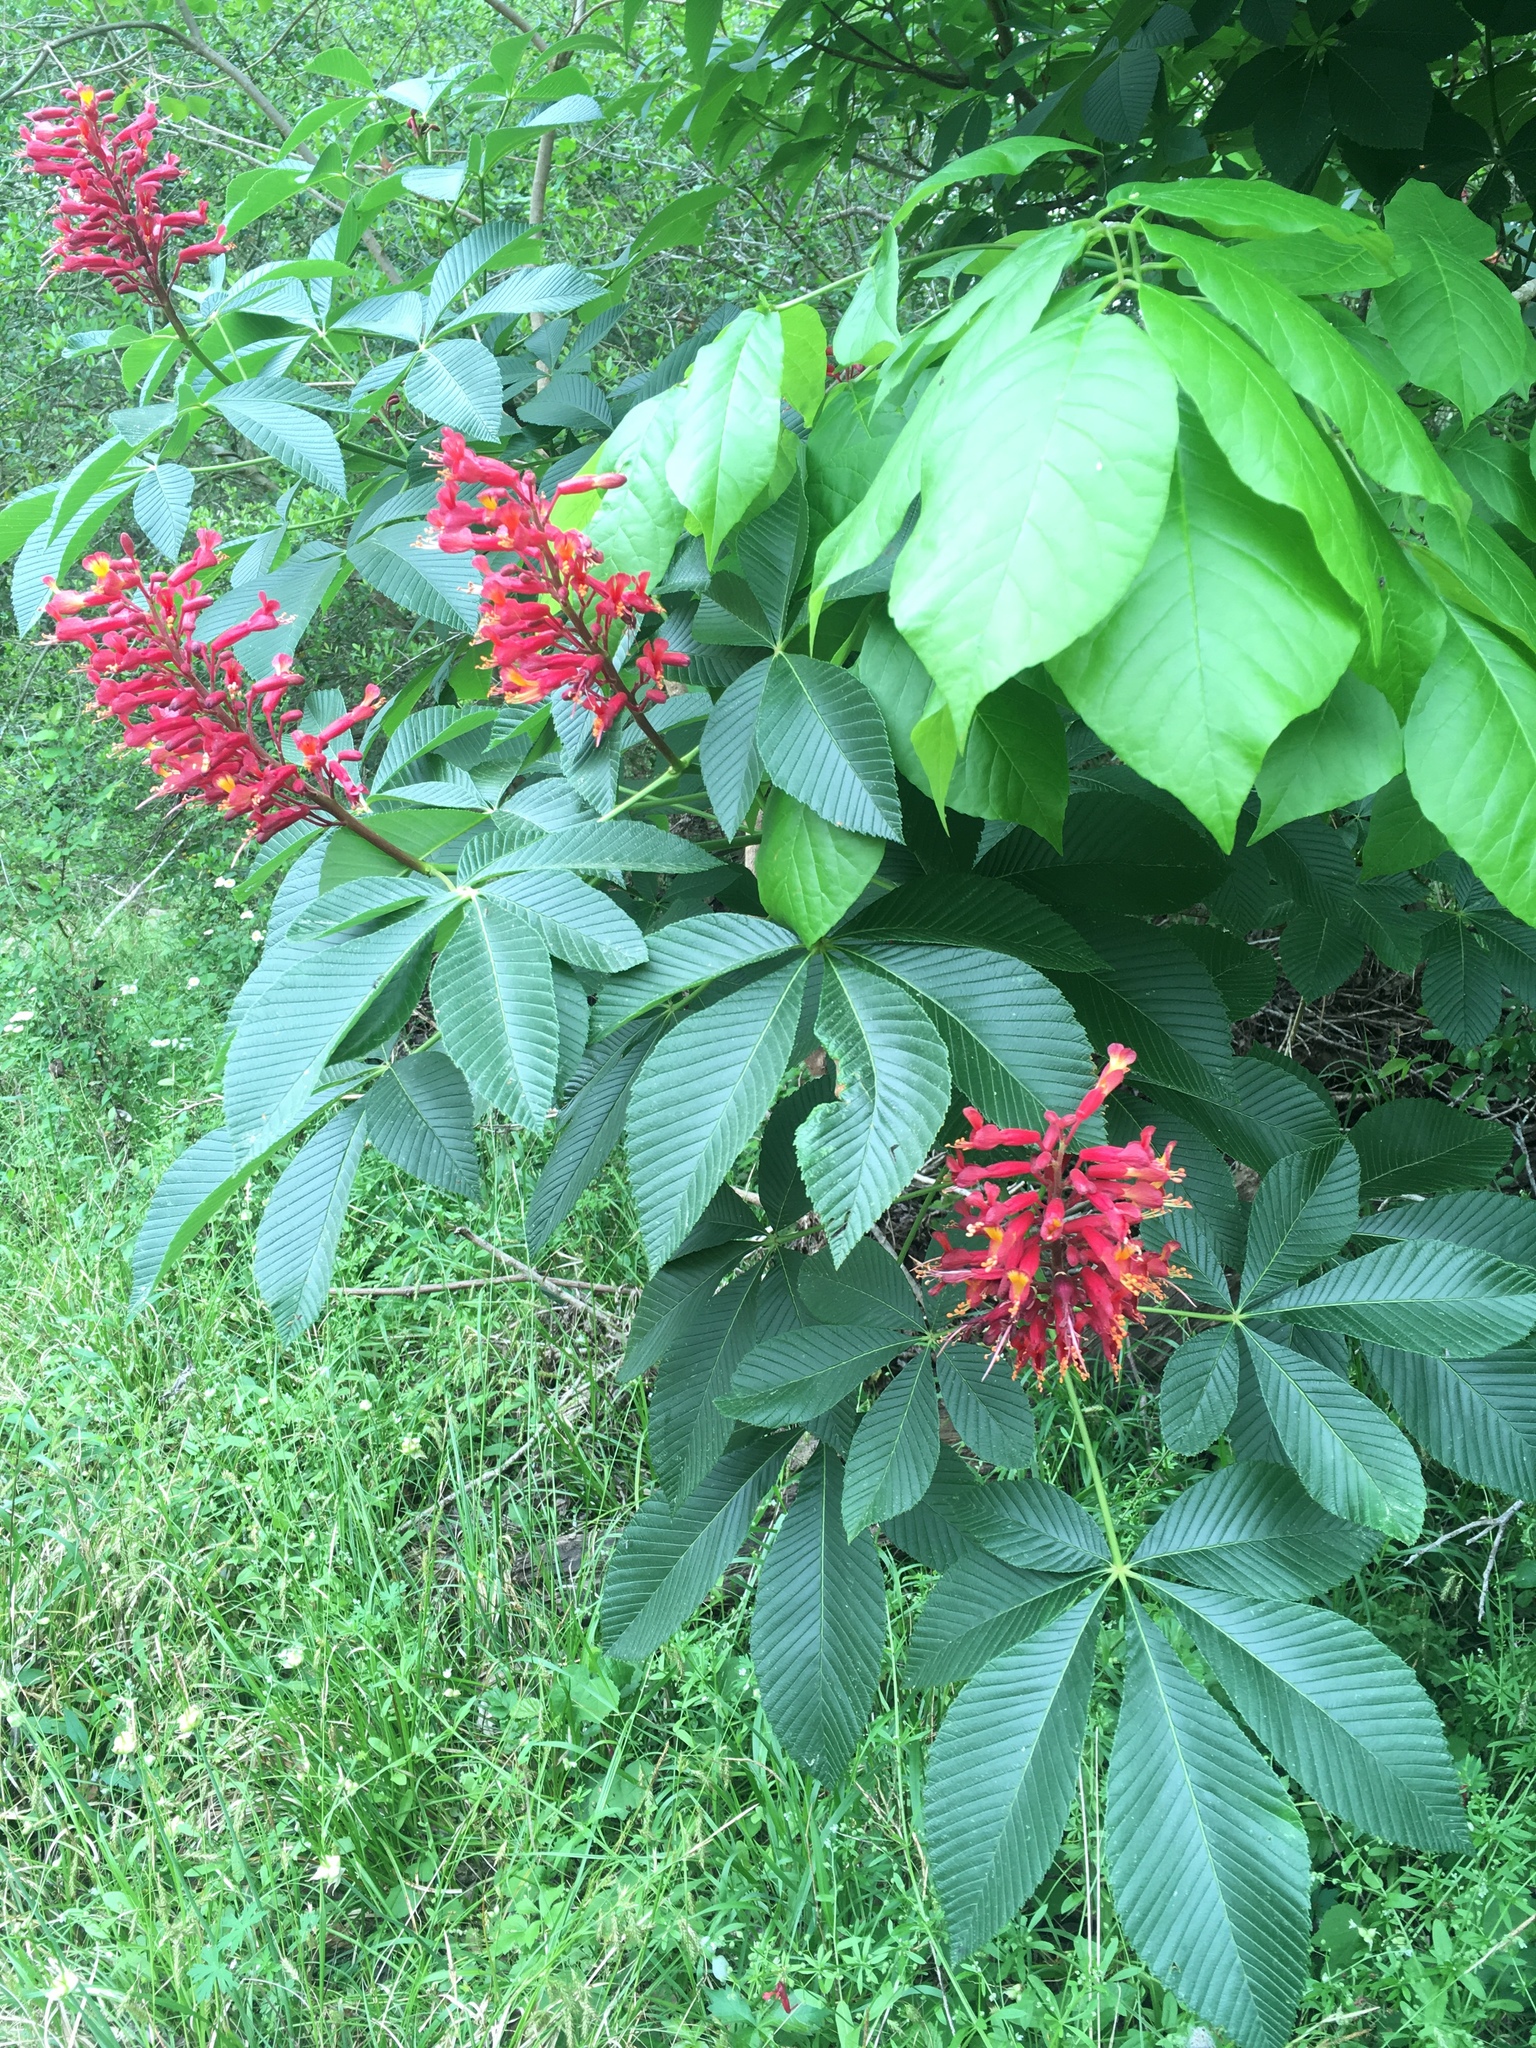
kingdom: Plantae
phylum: Tracheophyta
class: Magnoliopsida
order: Sapindales
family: Sapindaceae
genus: Aesculus
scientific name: Aesculus pavia
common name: Red buckeye
